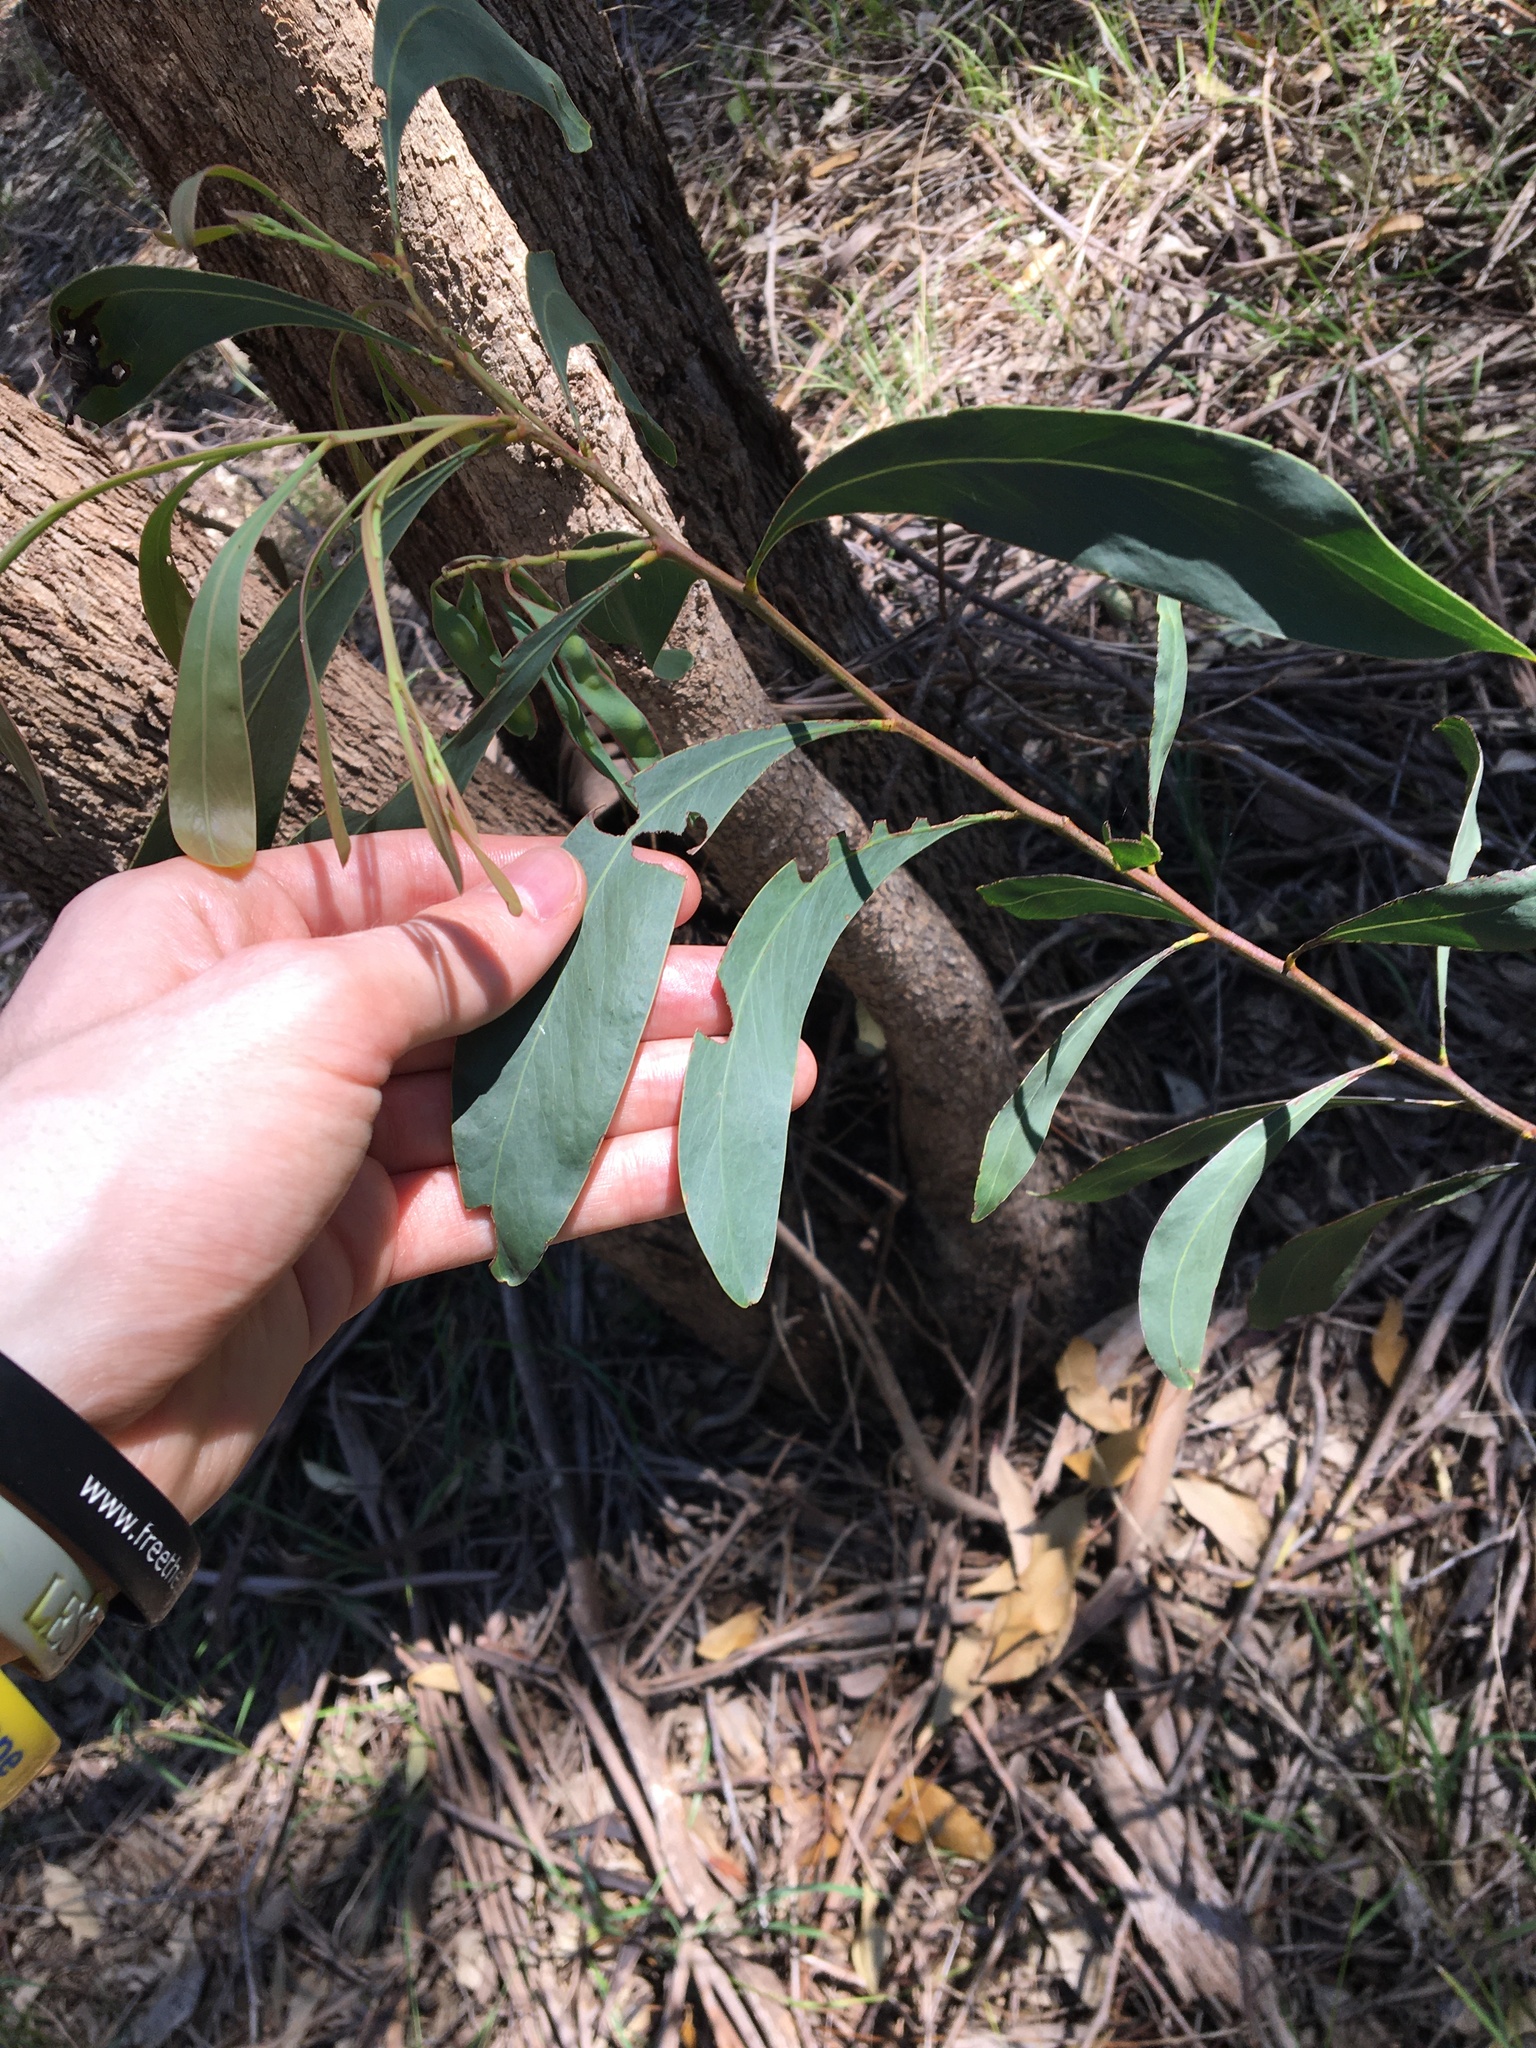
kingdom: Plantae
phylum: Tracheophyta
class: Magnoliopsida
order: Fabales
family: Fabaceae
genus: Acacia
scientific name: Acacia falcata
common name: Burra acacia
